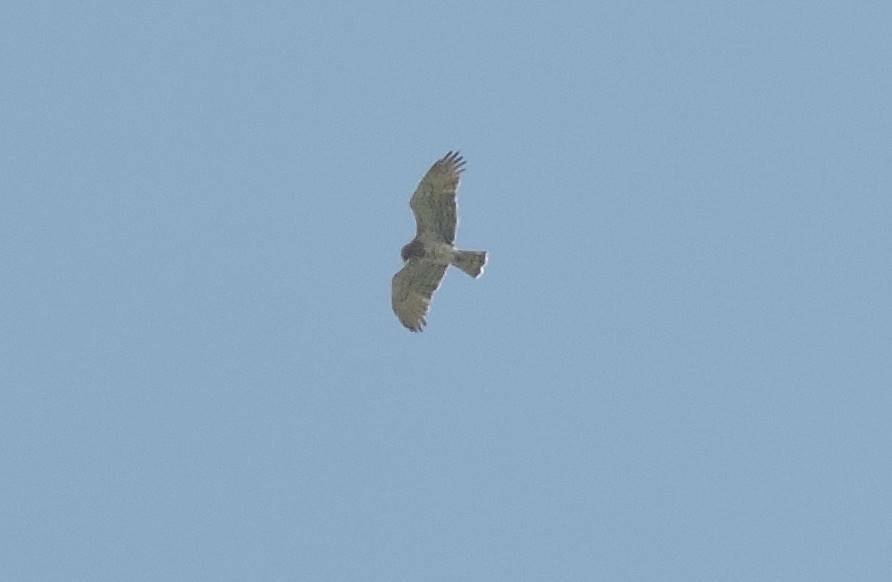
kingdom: Animalia
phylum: Chordata
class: Aves
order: Accipitriformes
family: Accipitridae
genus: Circaetus
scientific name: Circaetus gallicus
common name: Short-toed snake eagle
